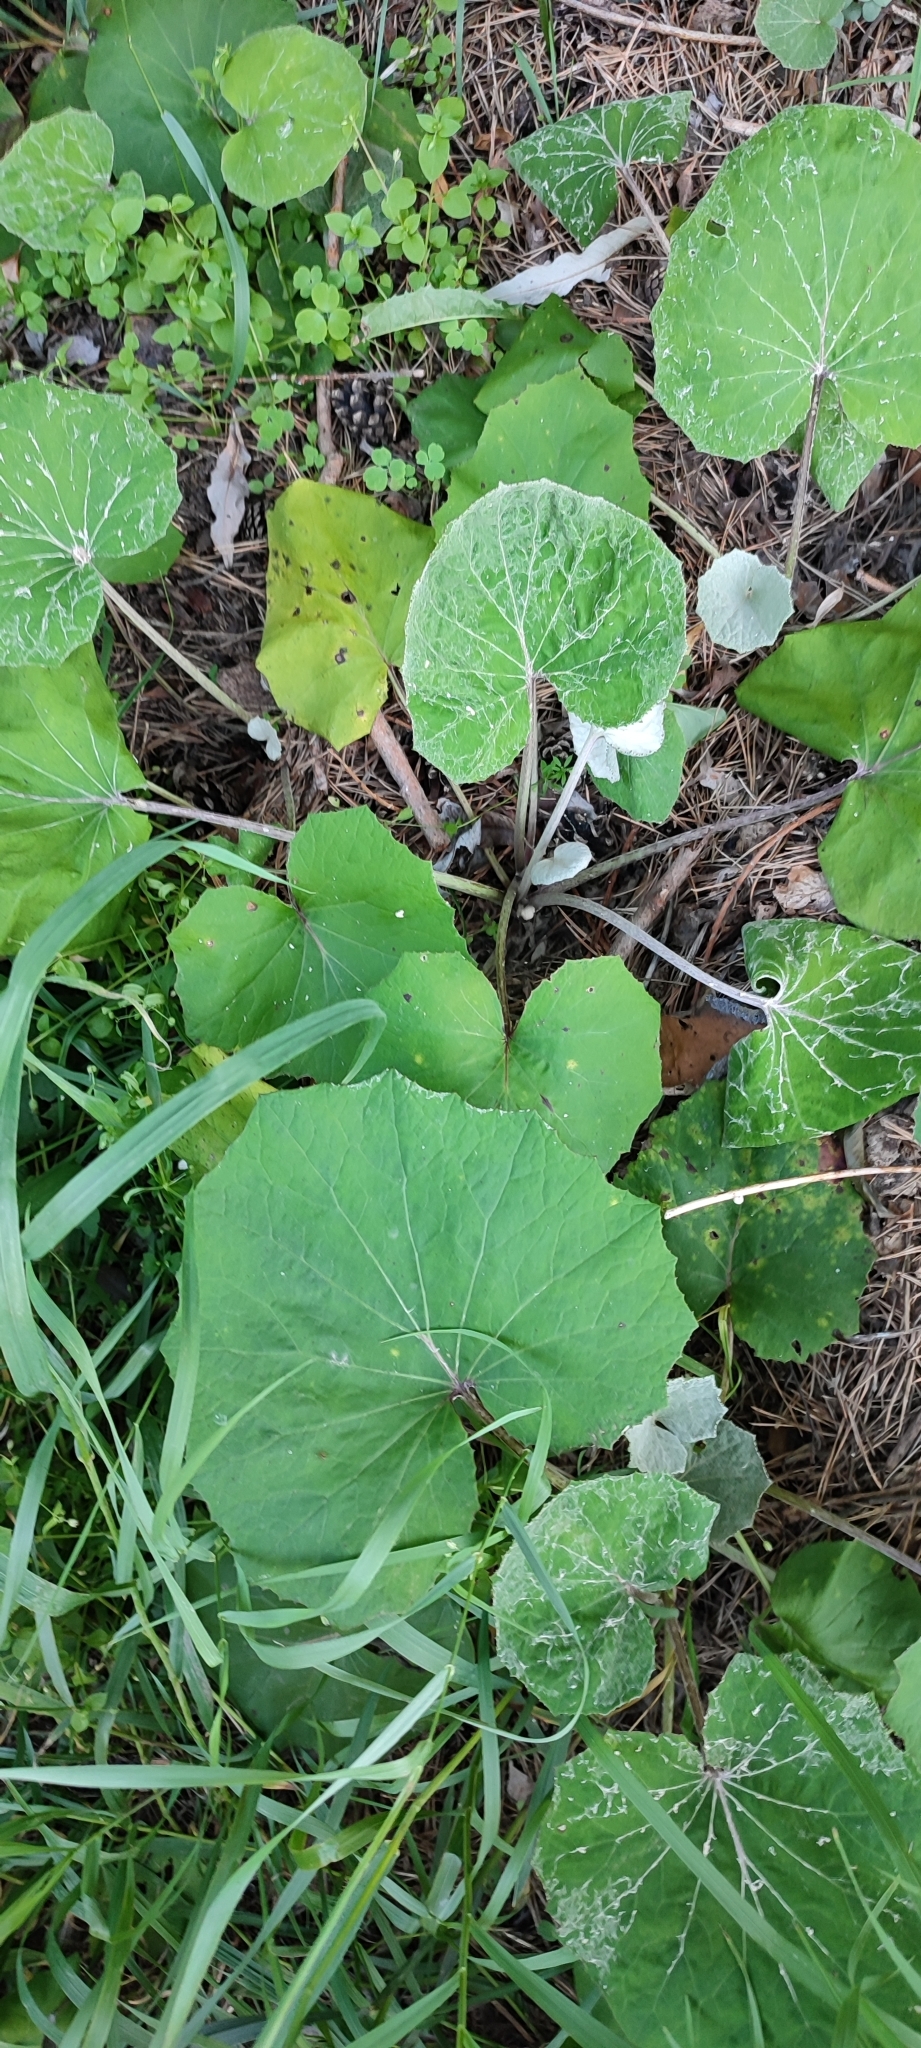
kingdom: Plantae
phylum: Tracheophyta
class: Magnoliopsida
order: Asterales
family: Asteraceae
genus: Tussilago
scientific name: Tussilago farfara
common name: Coltsfoot
